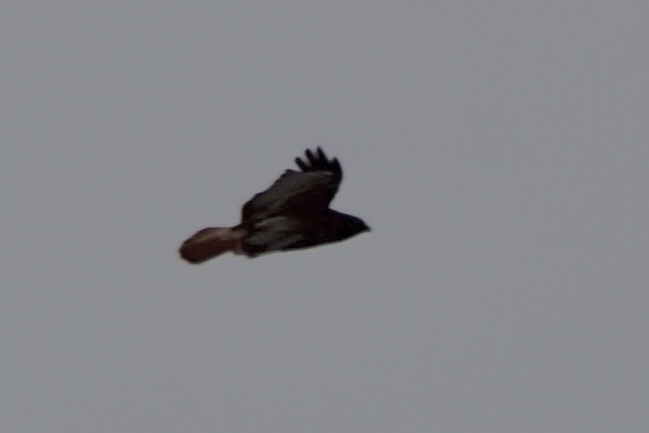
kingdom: Animalia
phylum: Chordata
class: Aves
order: Accipitriformes
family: Accipitridae
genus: Buteo
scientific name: Buteo jamaicensis
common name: Red-tailed hawk
